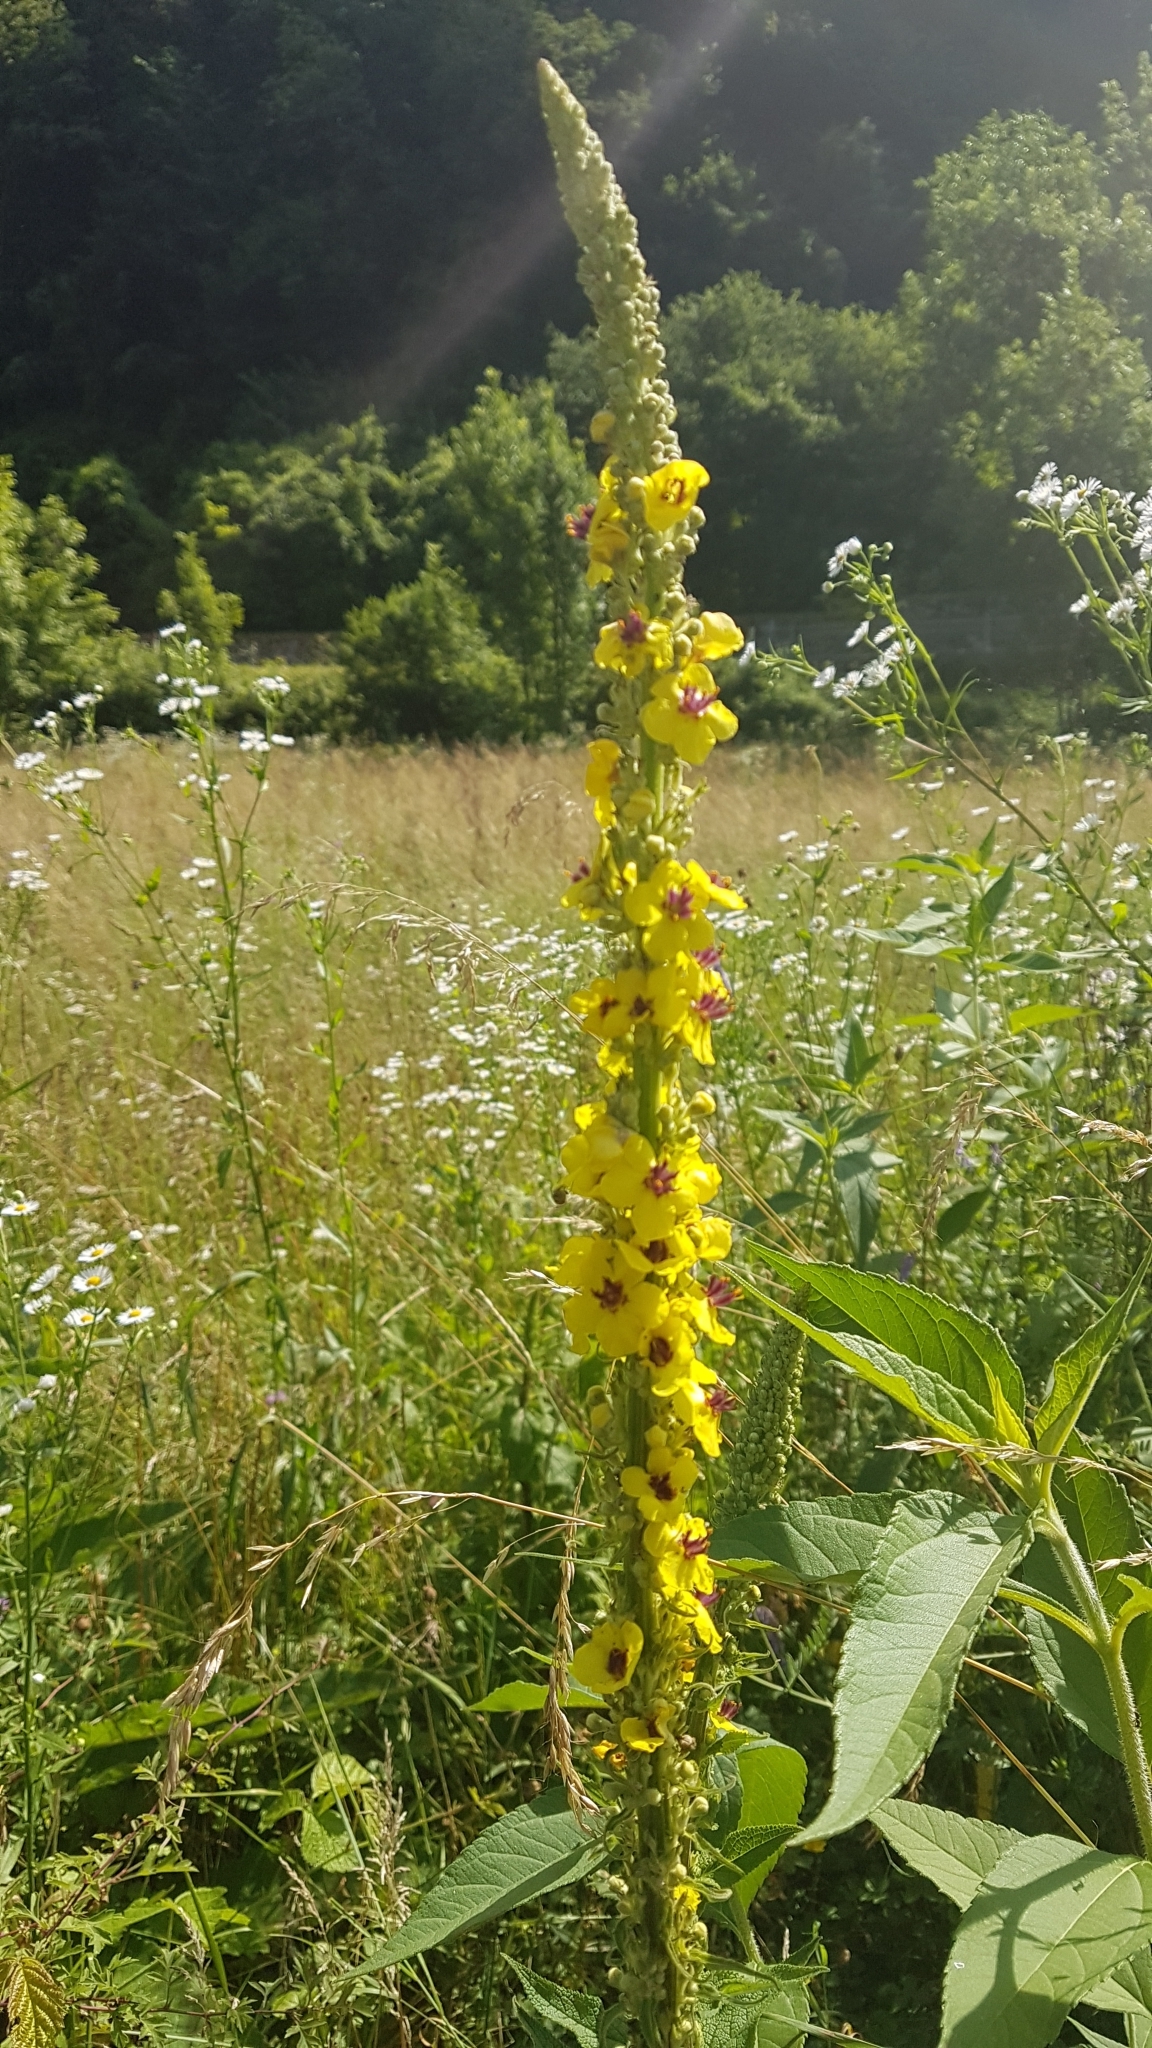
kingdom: Plantae
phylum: Tracheophyta
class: Magnoliopsida
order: Lamiales
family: Scrophulariaceae
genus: Verbascum
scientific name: Verbascum nigrum
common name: Dark mullein
